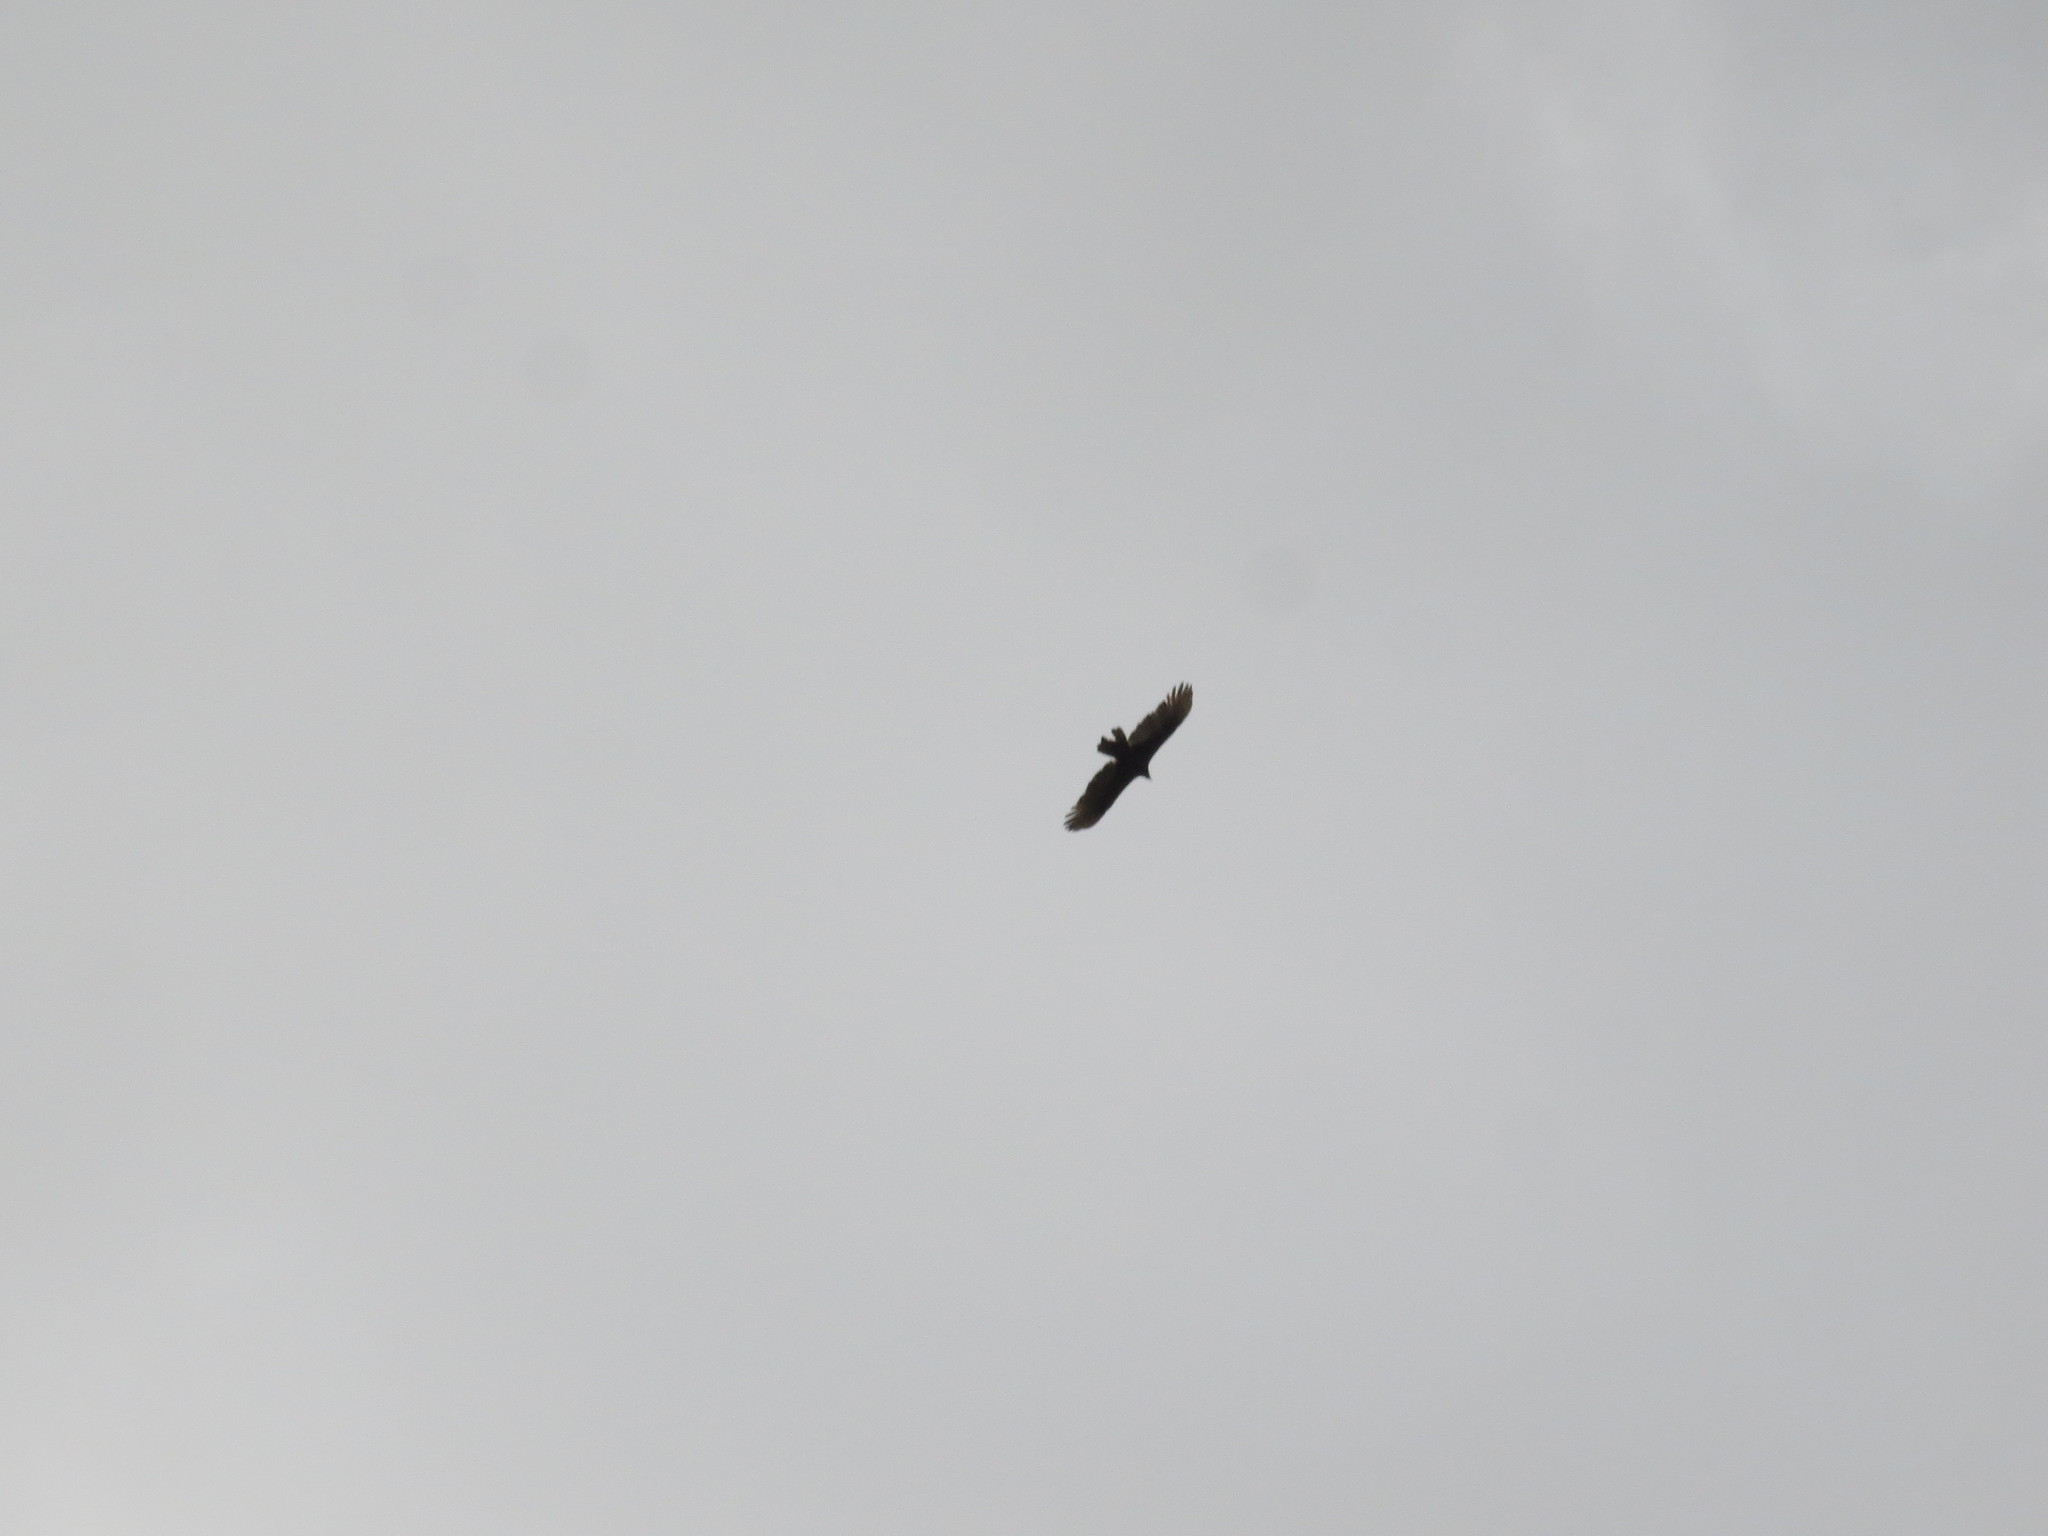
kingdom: Animalia
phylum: Chordata
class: Aves
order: Accipitriformes
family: Cathartidae
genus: Cathartes
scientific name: Cathartes aura
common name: Turkey vulture
